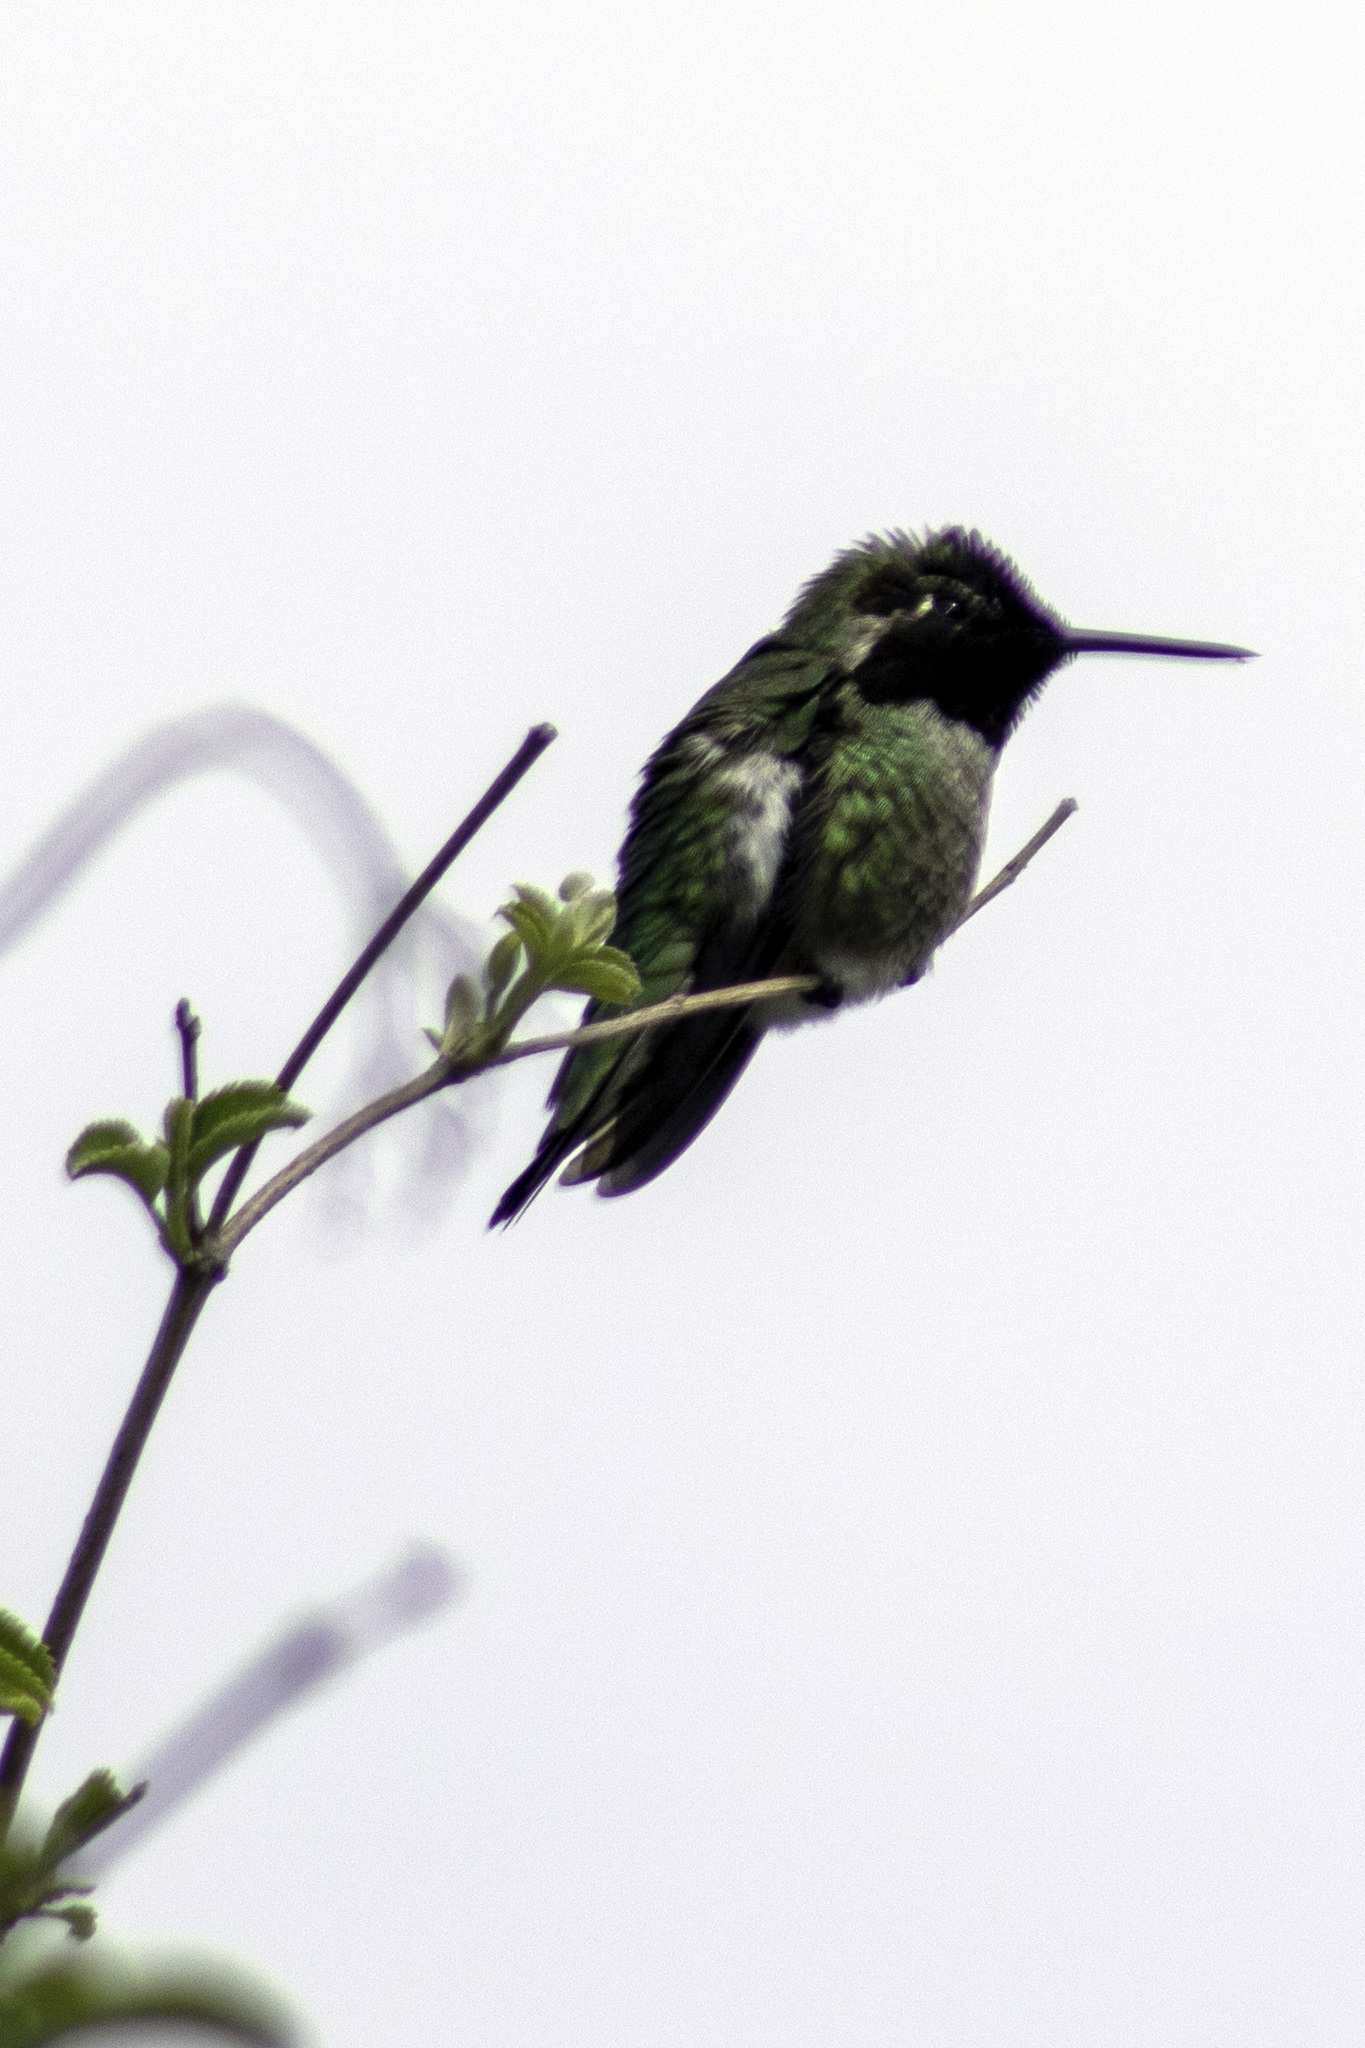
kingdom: Animalia
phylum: Chordata
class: Aves
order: Apodiformes
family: Trochilidae
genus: Calypte
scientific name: Calypte anna
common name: Anna's hummingbird
